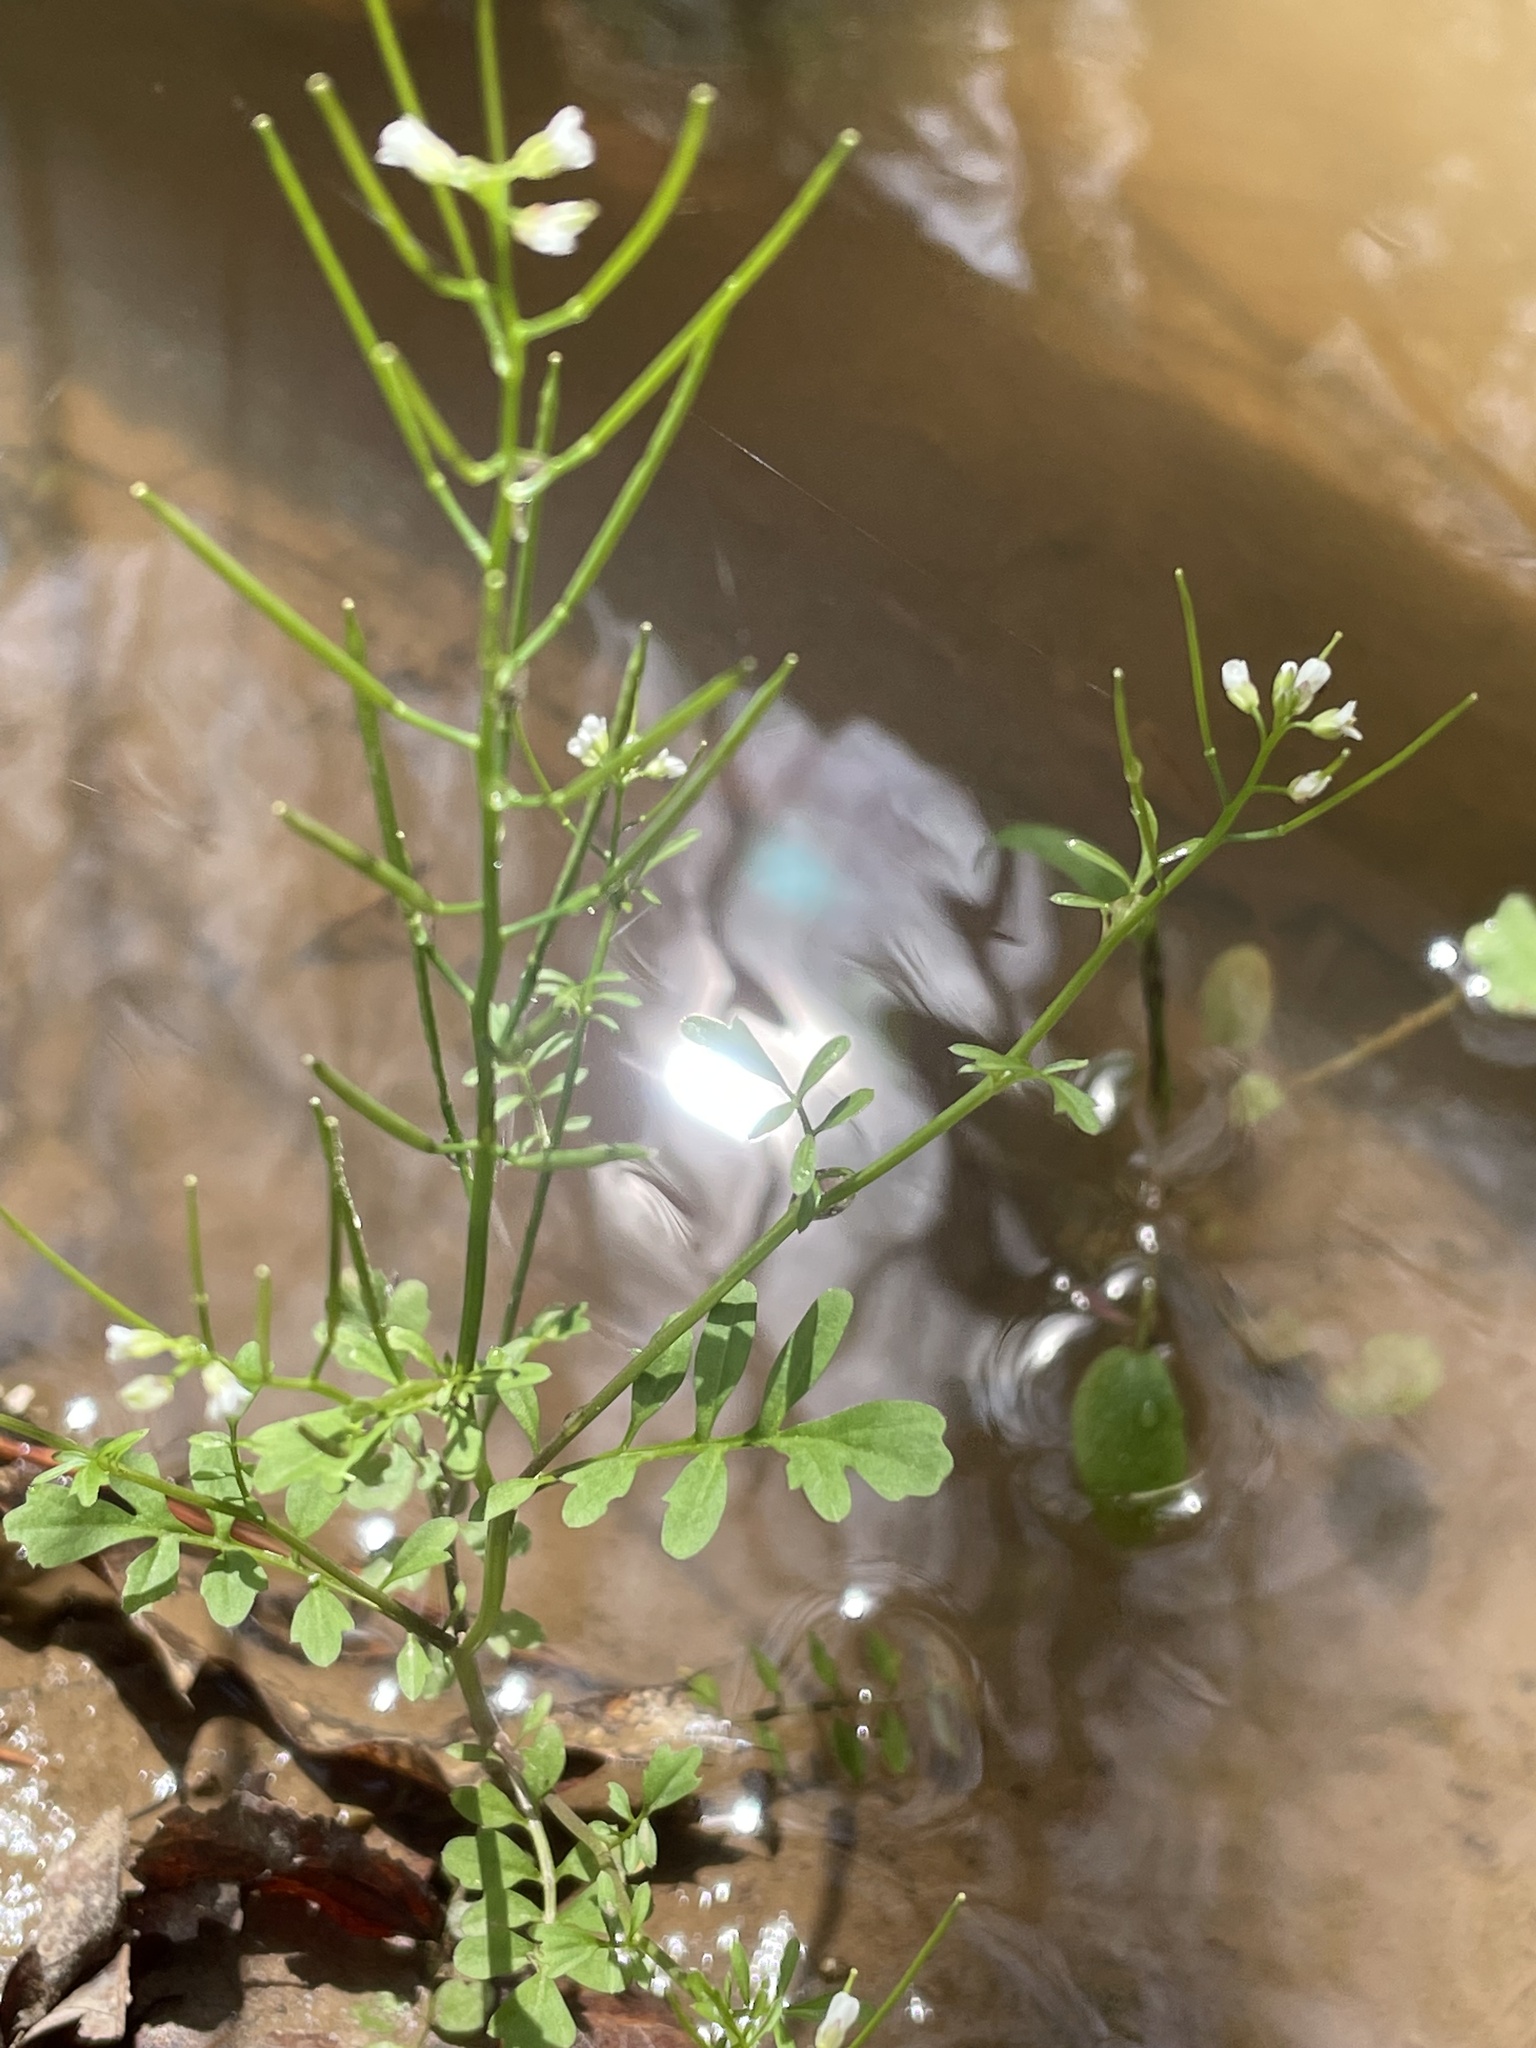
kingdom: Plantae
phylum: Tracheophyta
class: Magnoliopsida
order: Brassicales
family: Brassicaceae
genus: Cardamine
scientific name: Cardamine occulta
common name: Asian wavy bittercress
